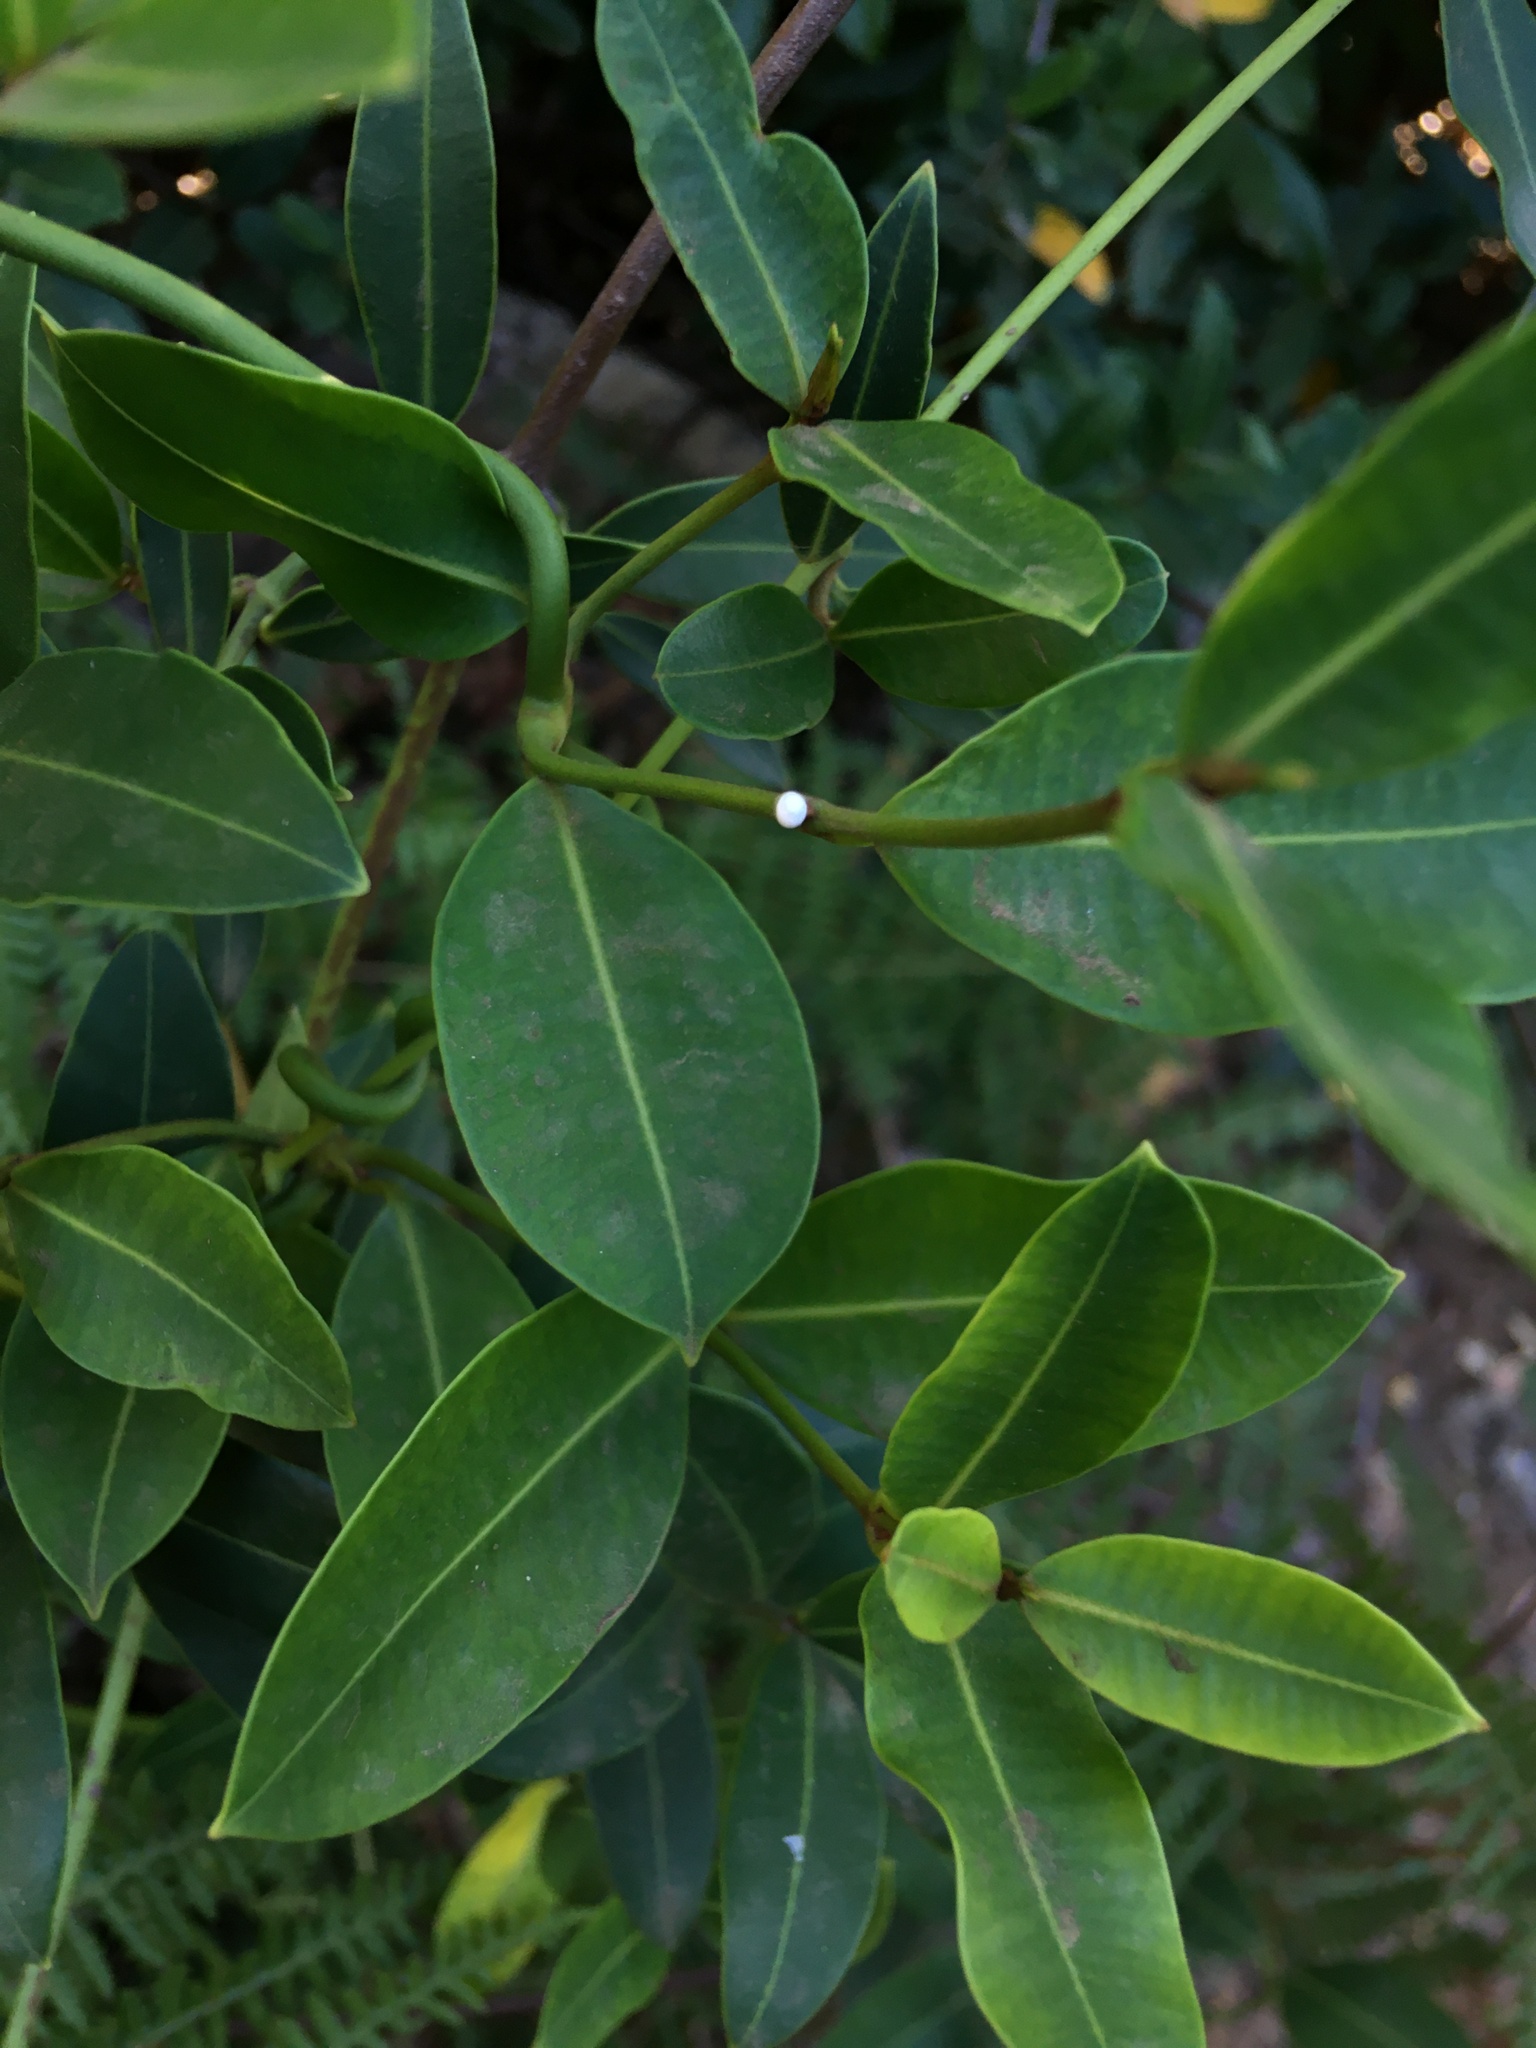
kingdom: Plantae
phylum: Tracheophyta
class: Magnoliopsida
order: Gentianales
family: Apocynaceae
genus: Secamone
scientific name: Secamone alpini
